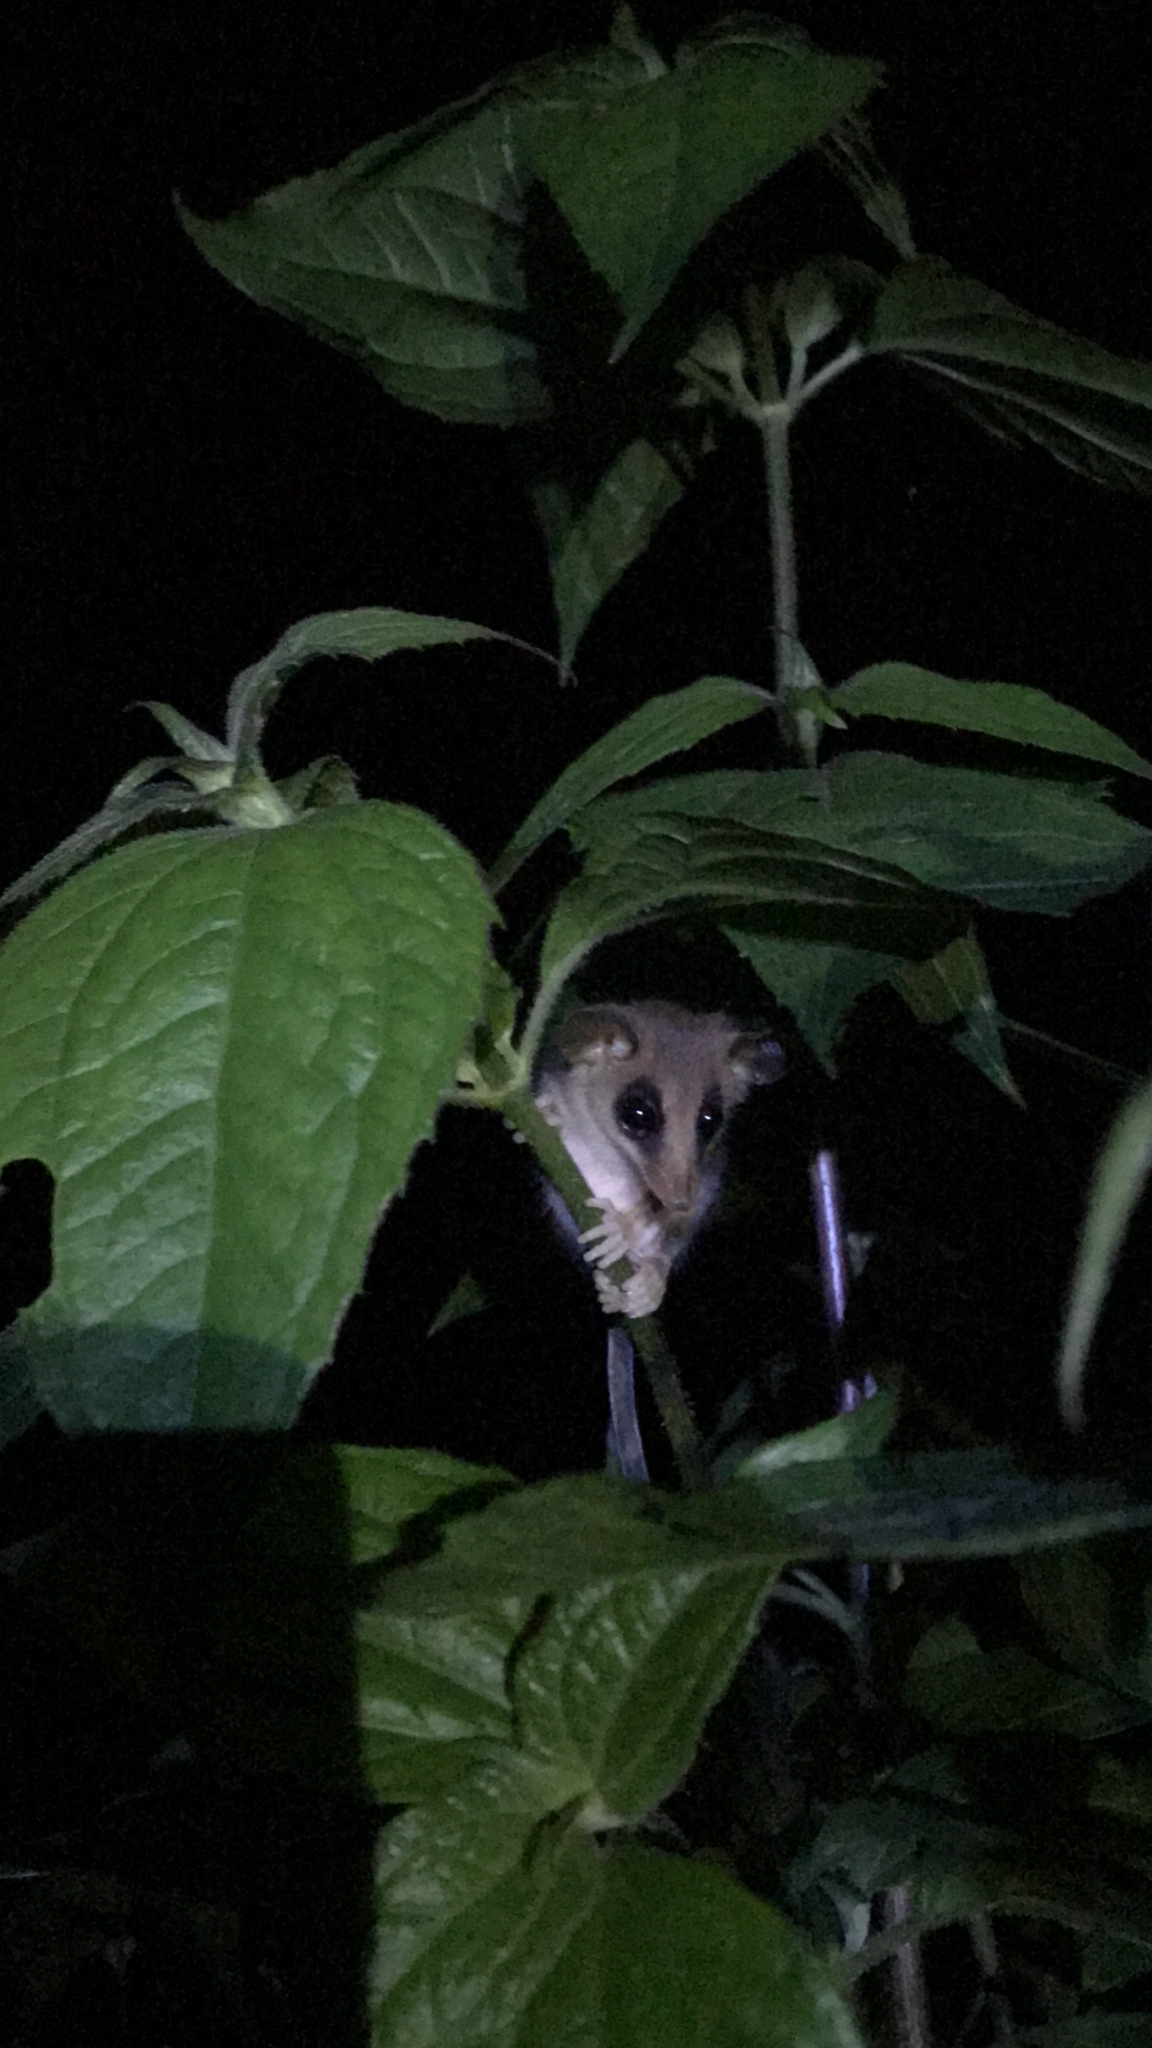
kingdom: Animalia
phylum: Chordata
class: Mammalia
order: Didelphimorphia
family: Didelphidae
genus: Tlacuatzin
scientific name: Tlacuatzin
